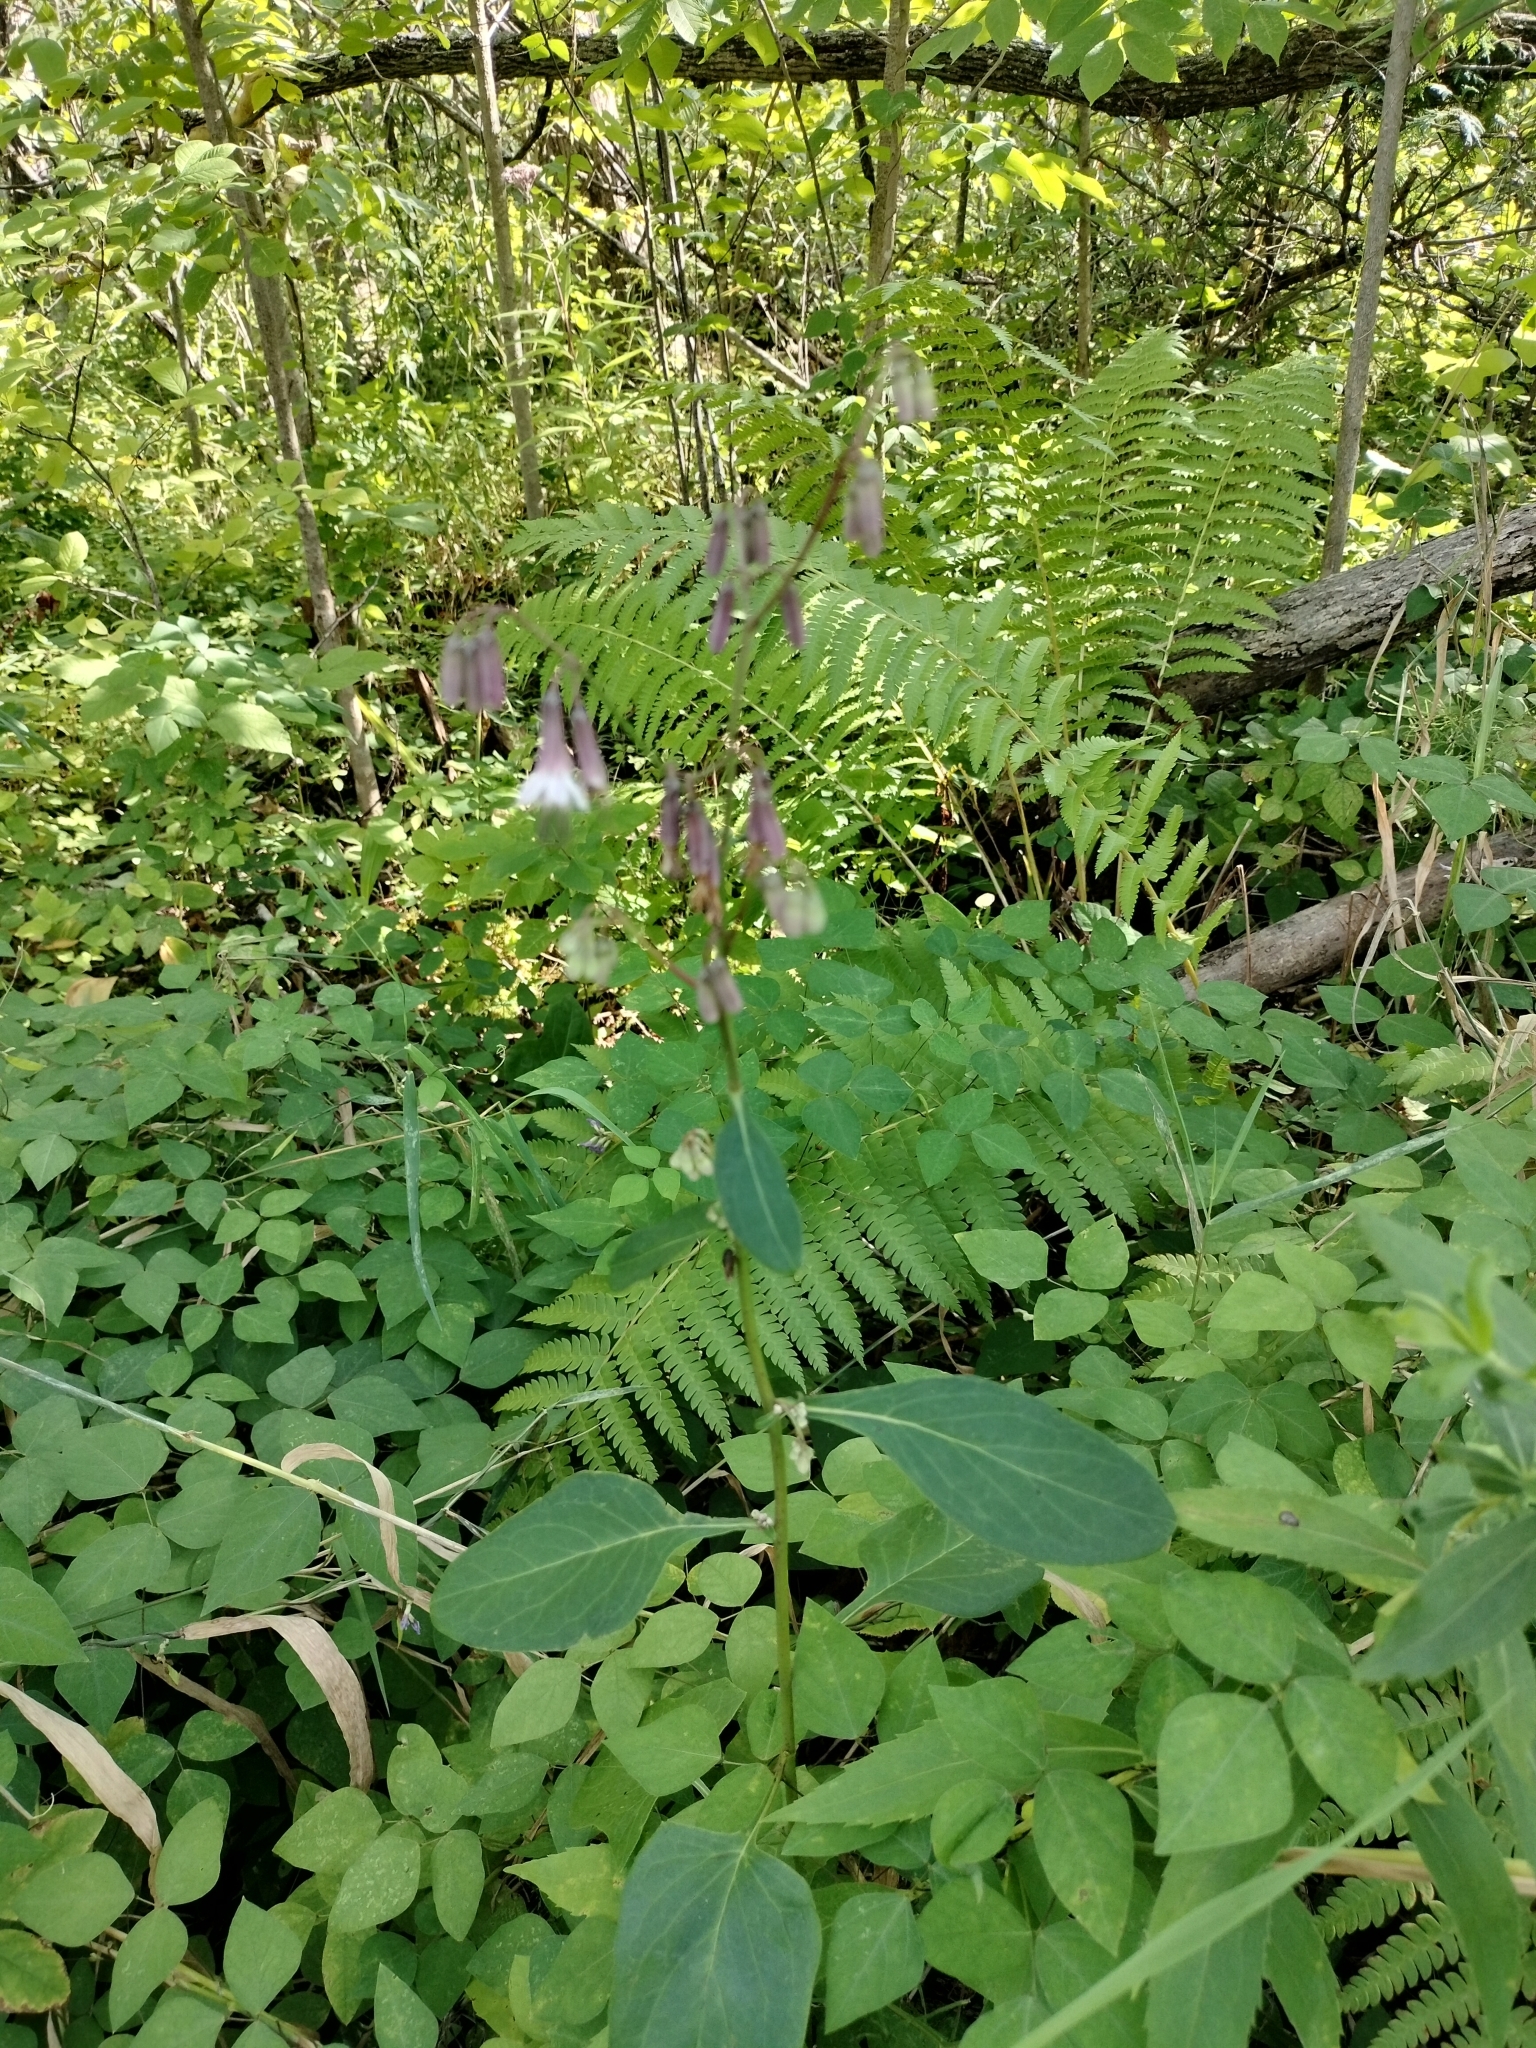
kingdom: Plantae
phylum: Tracheophyta
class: Magnoliopsida
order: Asterales
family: Asteraceae
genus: Nabalus
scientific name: Nabalus albus
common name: White rattlesnakeroot
